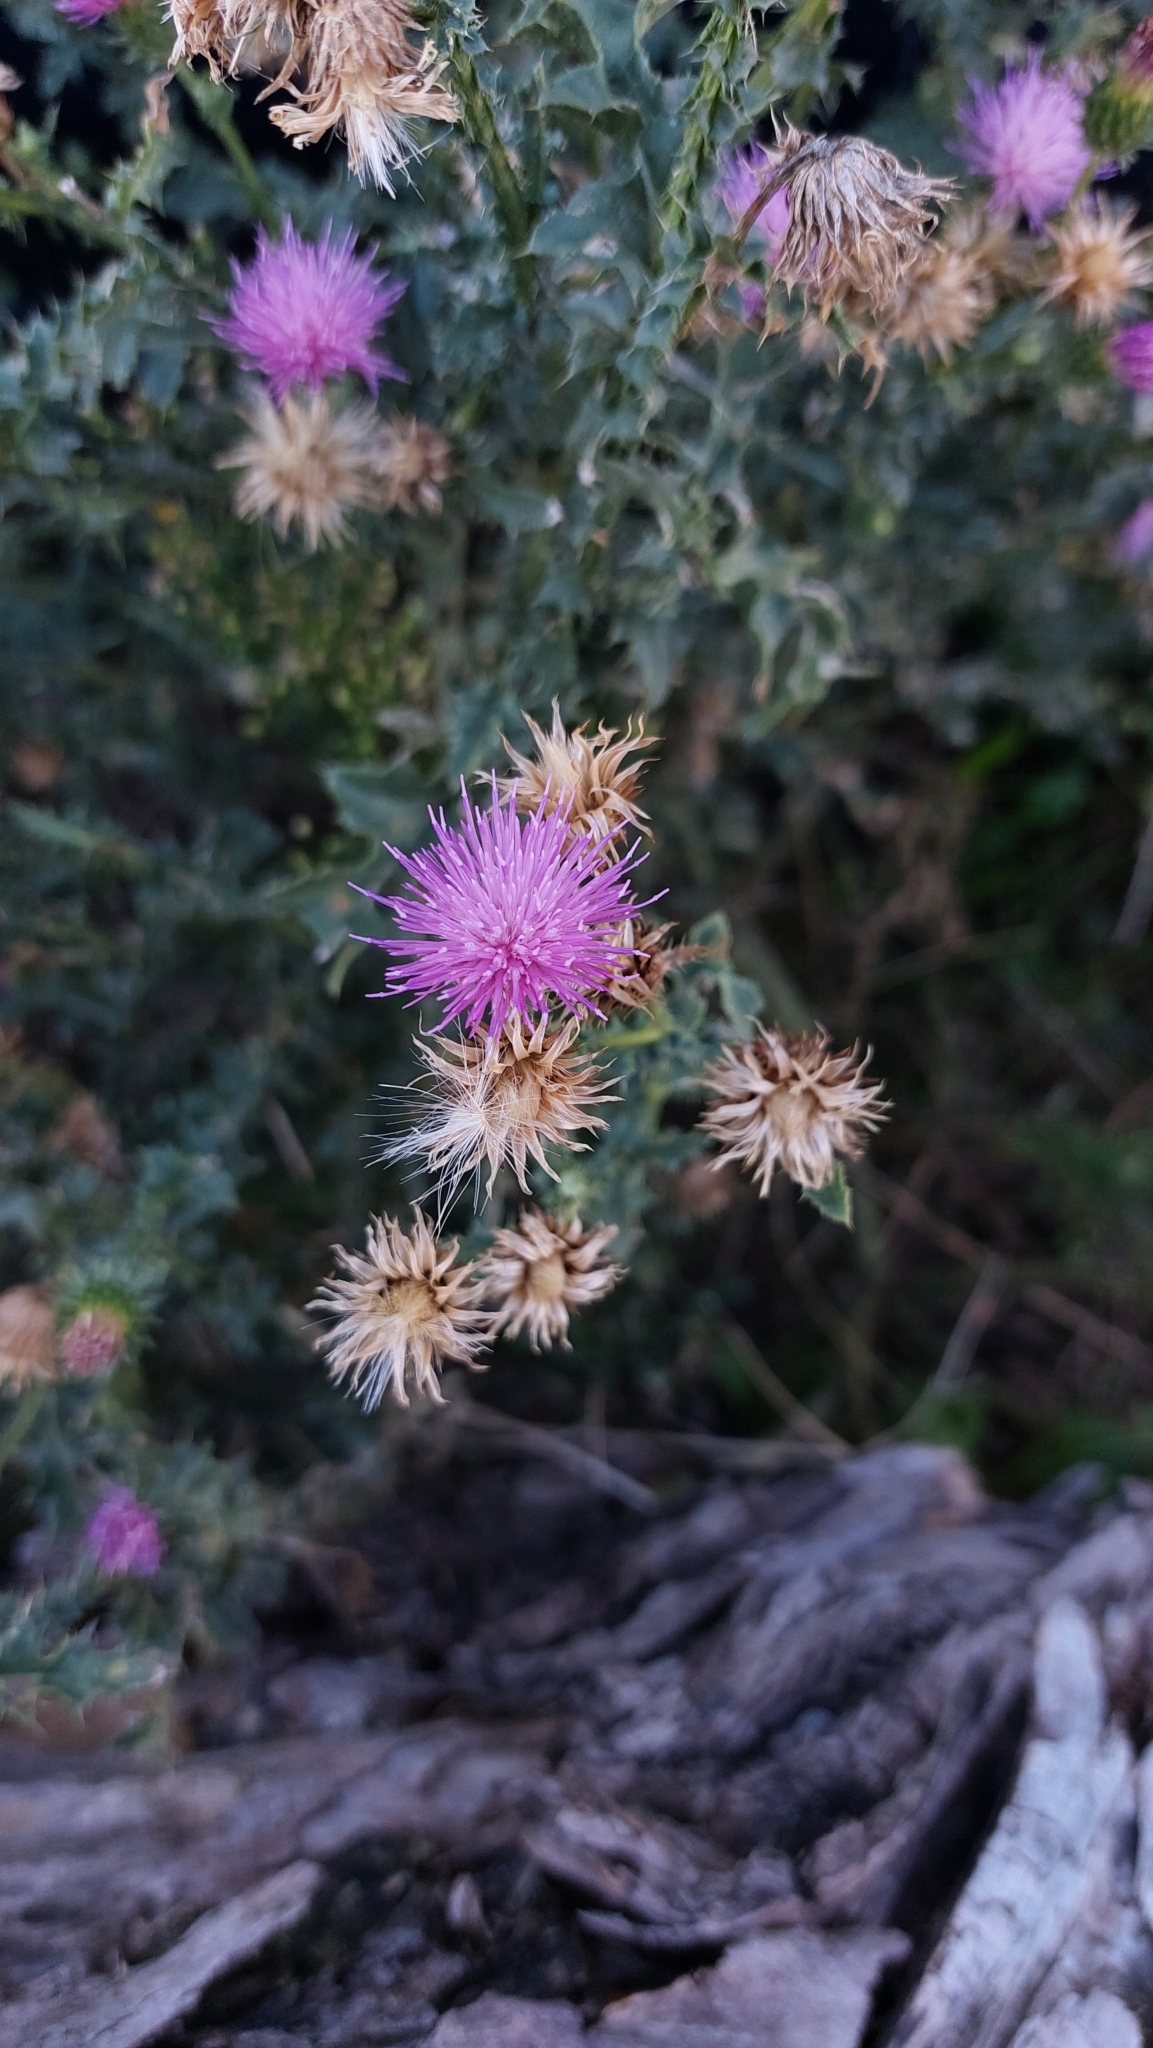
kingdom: Plantae
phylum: Tracheophyta
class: Magnoliopsida
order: Asterales
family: Asteraceae
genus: Carduus
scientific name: Carduus acanthoides
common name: Plumeless thistle
